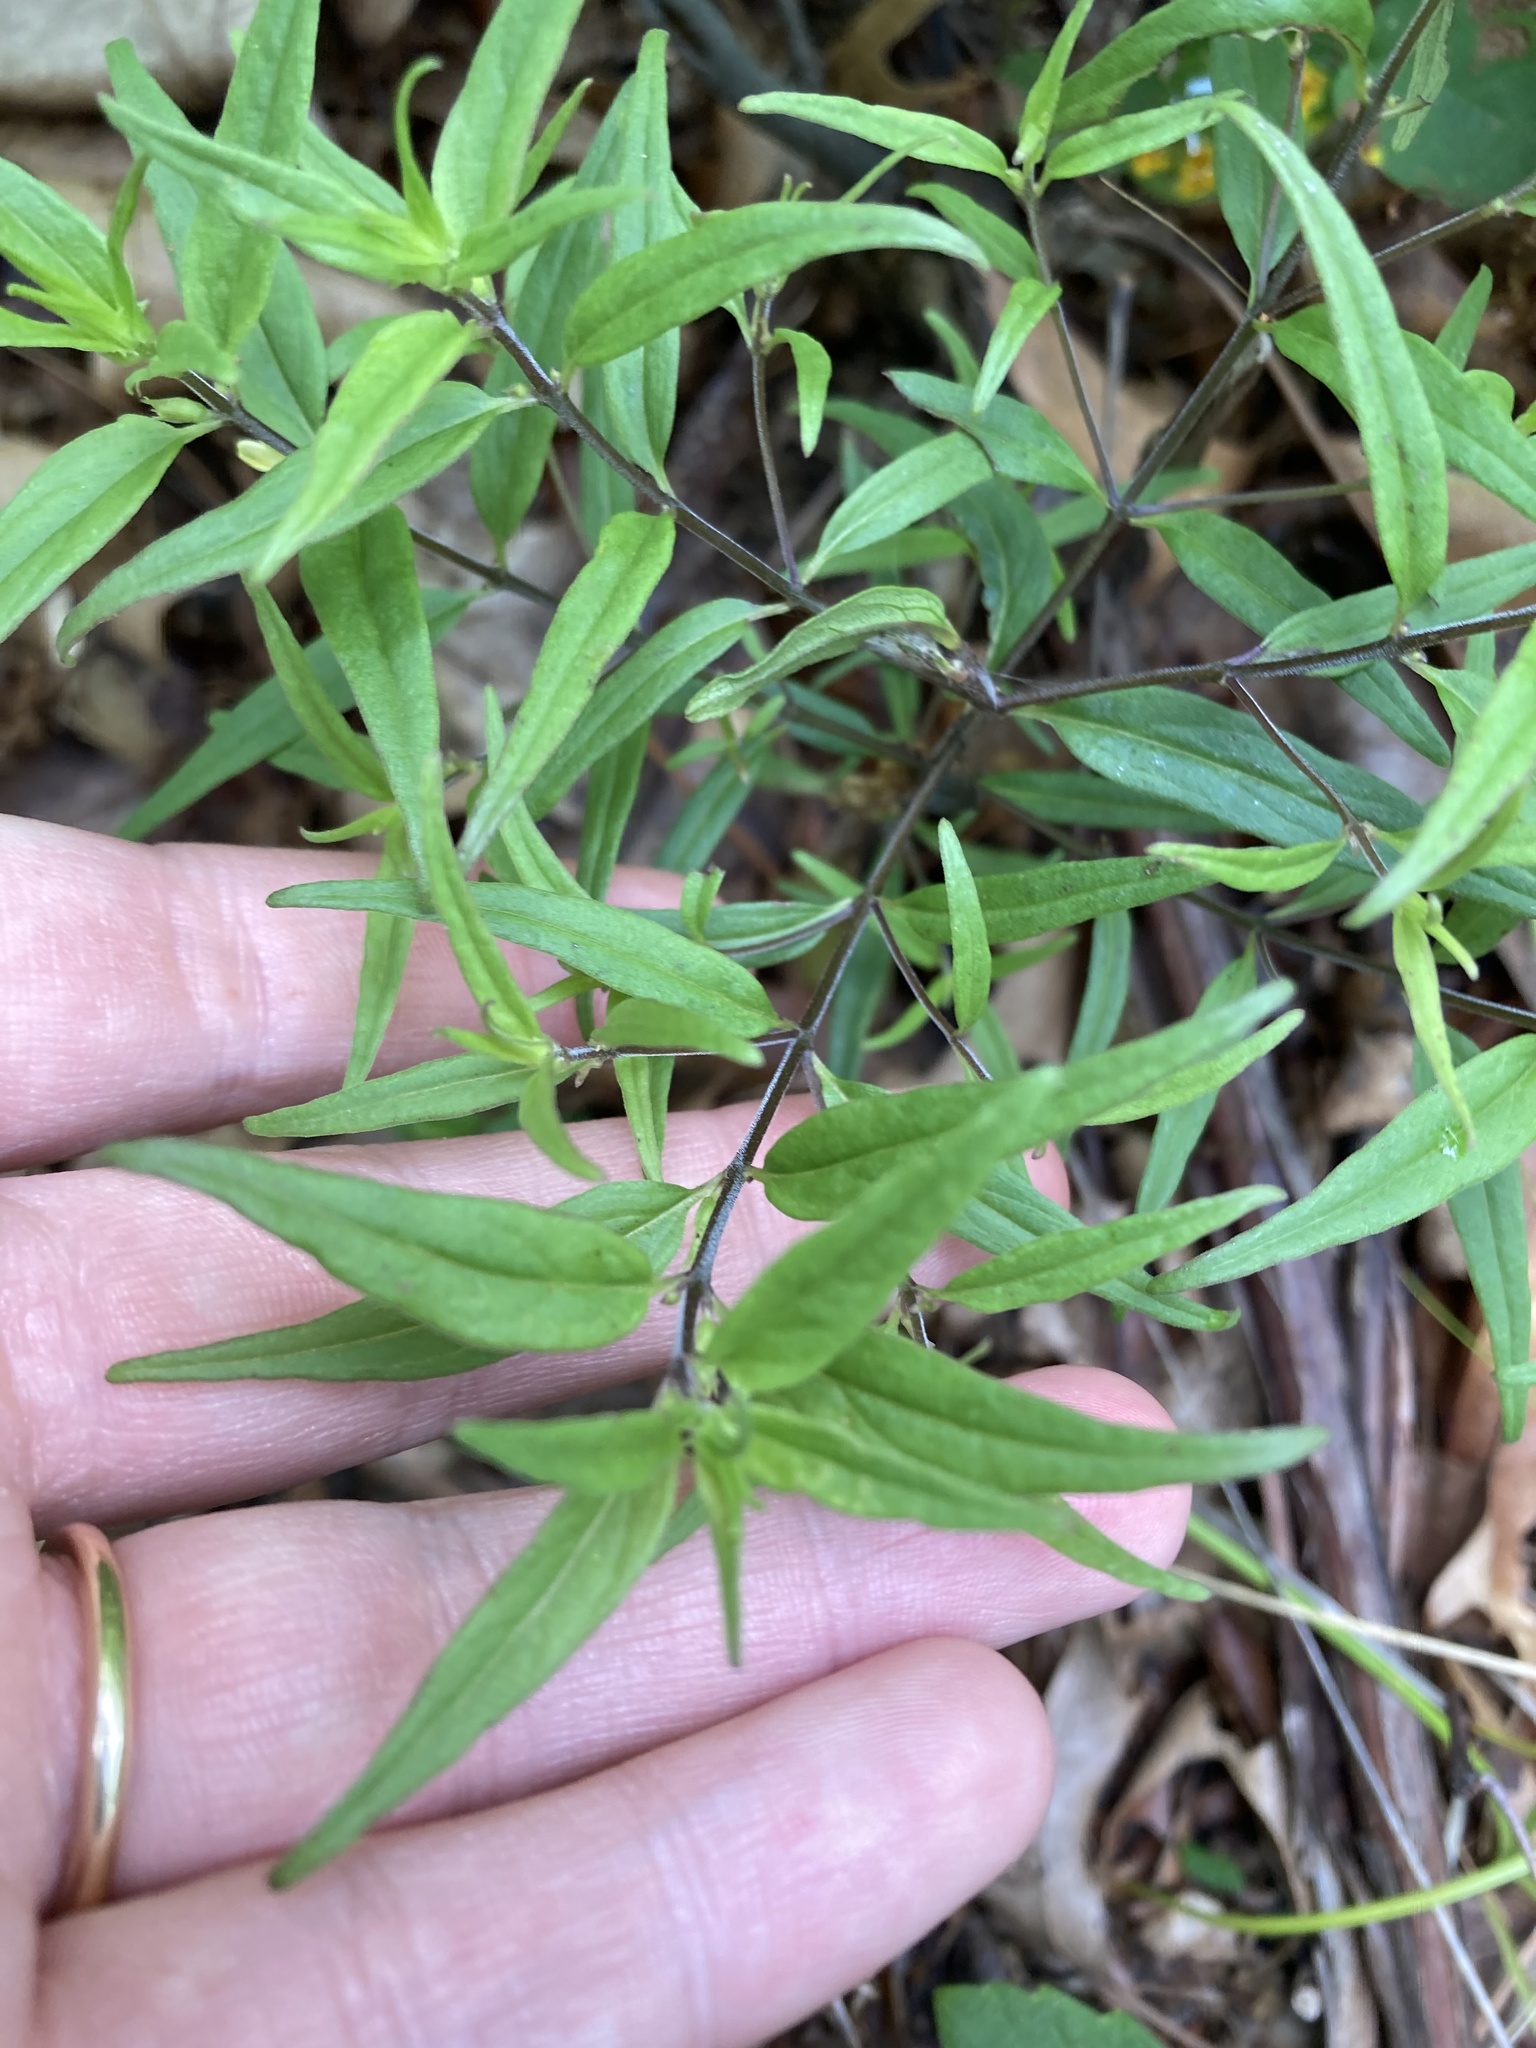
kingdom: Plantae
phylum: Tracheophyta
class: Magnoliopsida
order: Lamiales
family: Orobanchaceae
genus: Melampyrum
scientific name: Melampyrum lineare
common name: American cow-wheat
